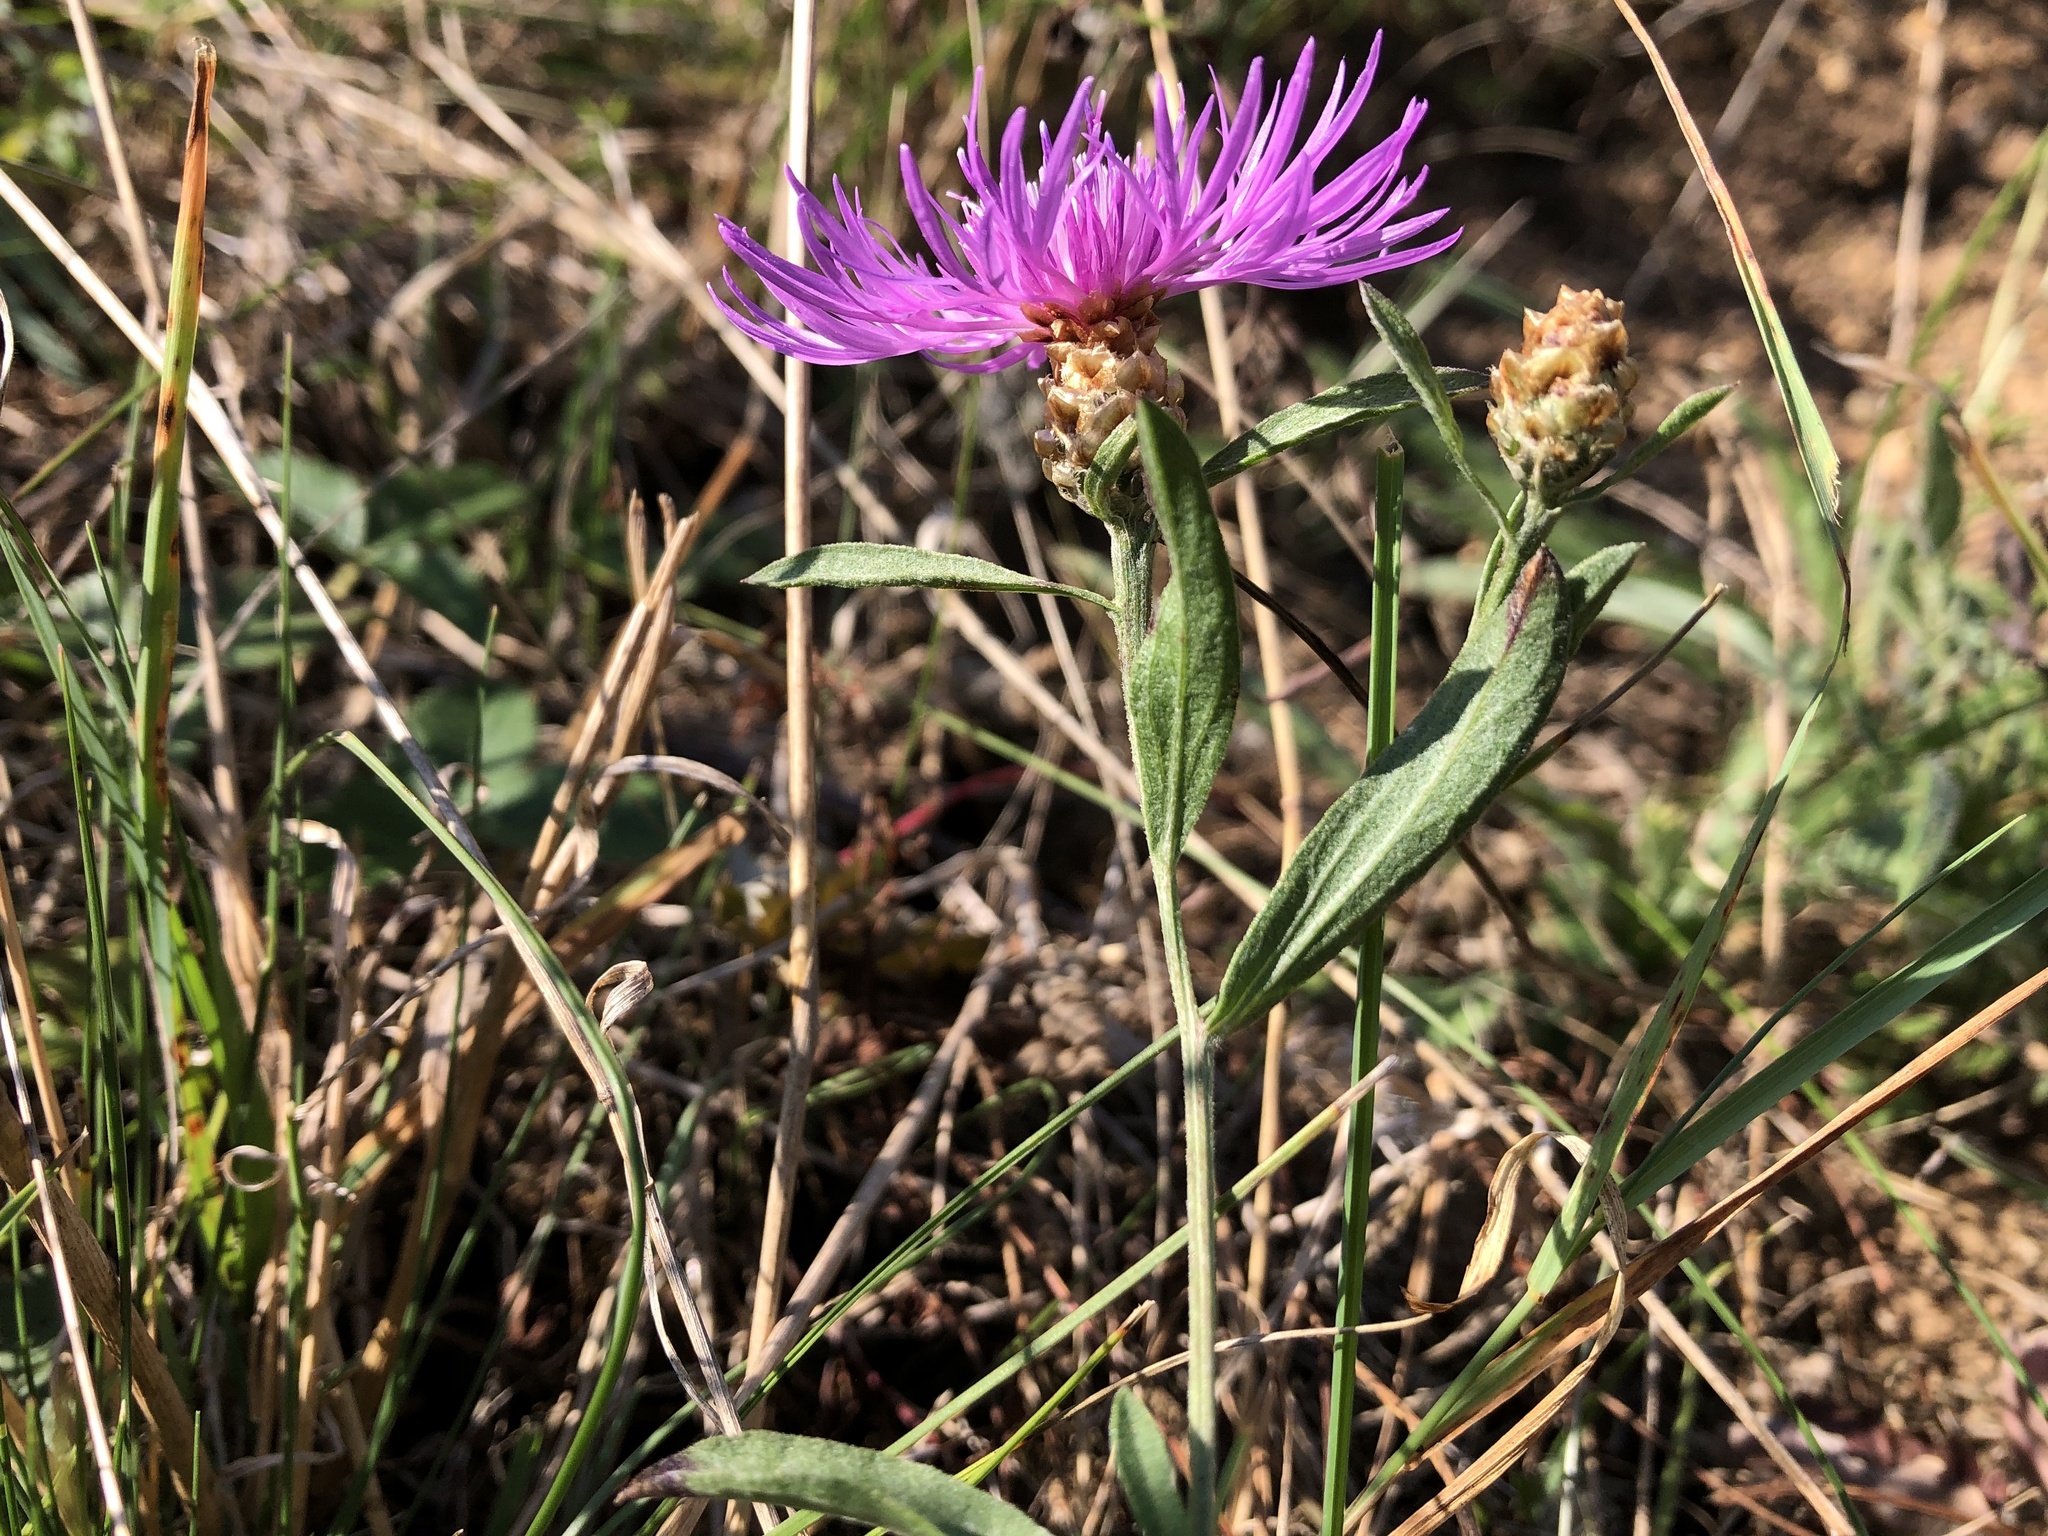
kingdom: Plantae
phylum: Tracheophyta
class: Magnoliopsida
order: Asterales
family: Asteraceae
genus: Centaurea
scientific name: Centaurea jacea
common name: Brown knapweed
